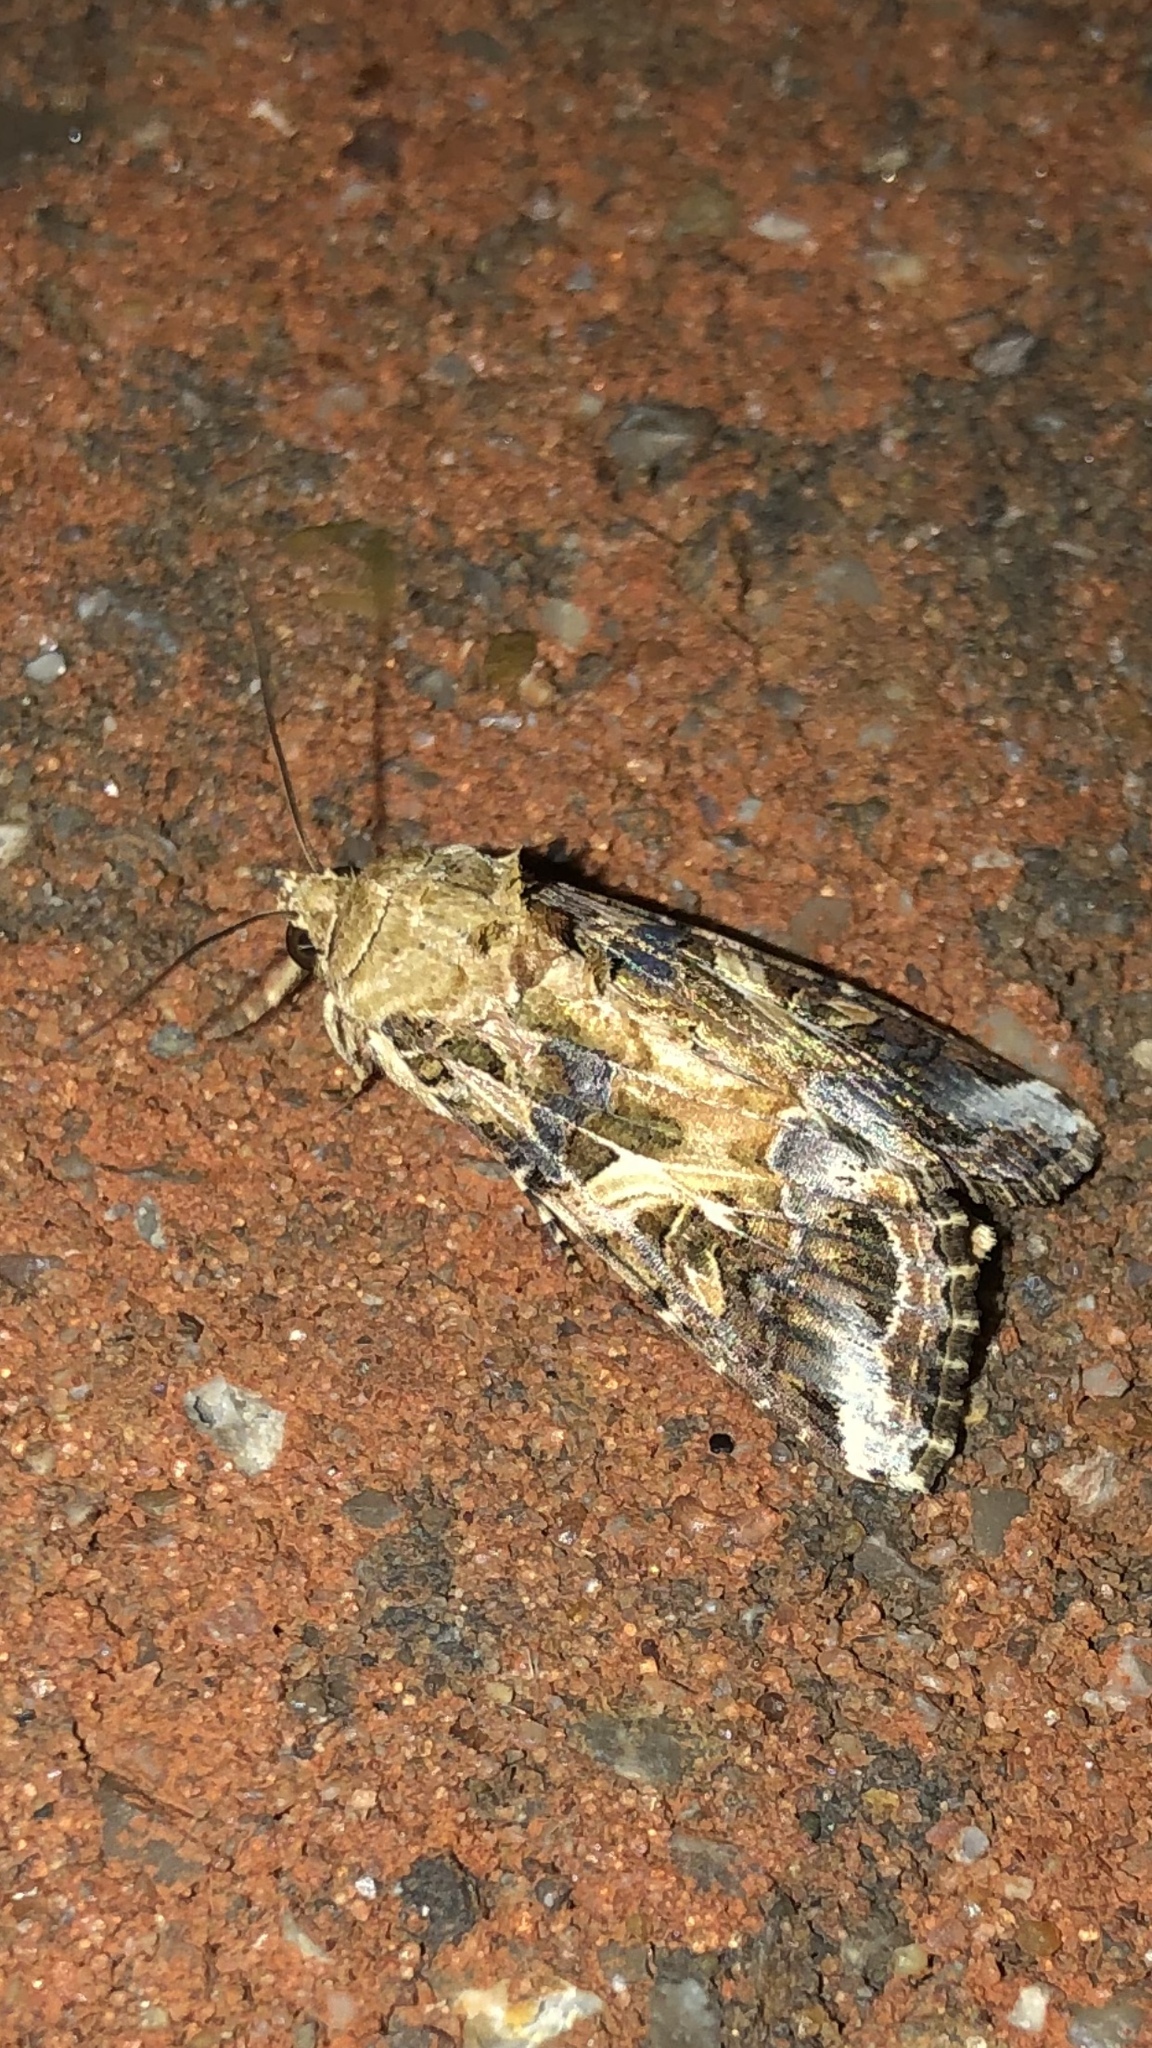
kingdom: Animalia
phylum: Arthropoda
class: Insecta
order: Lepidoptera
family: Noctuidae
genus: Spodoptera
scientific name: Spodoptera ornithogalli
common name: Yellow-striped armyworm
